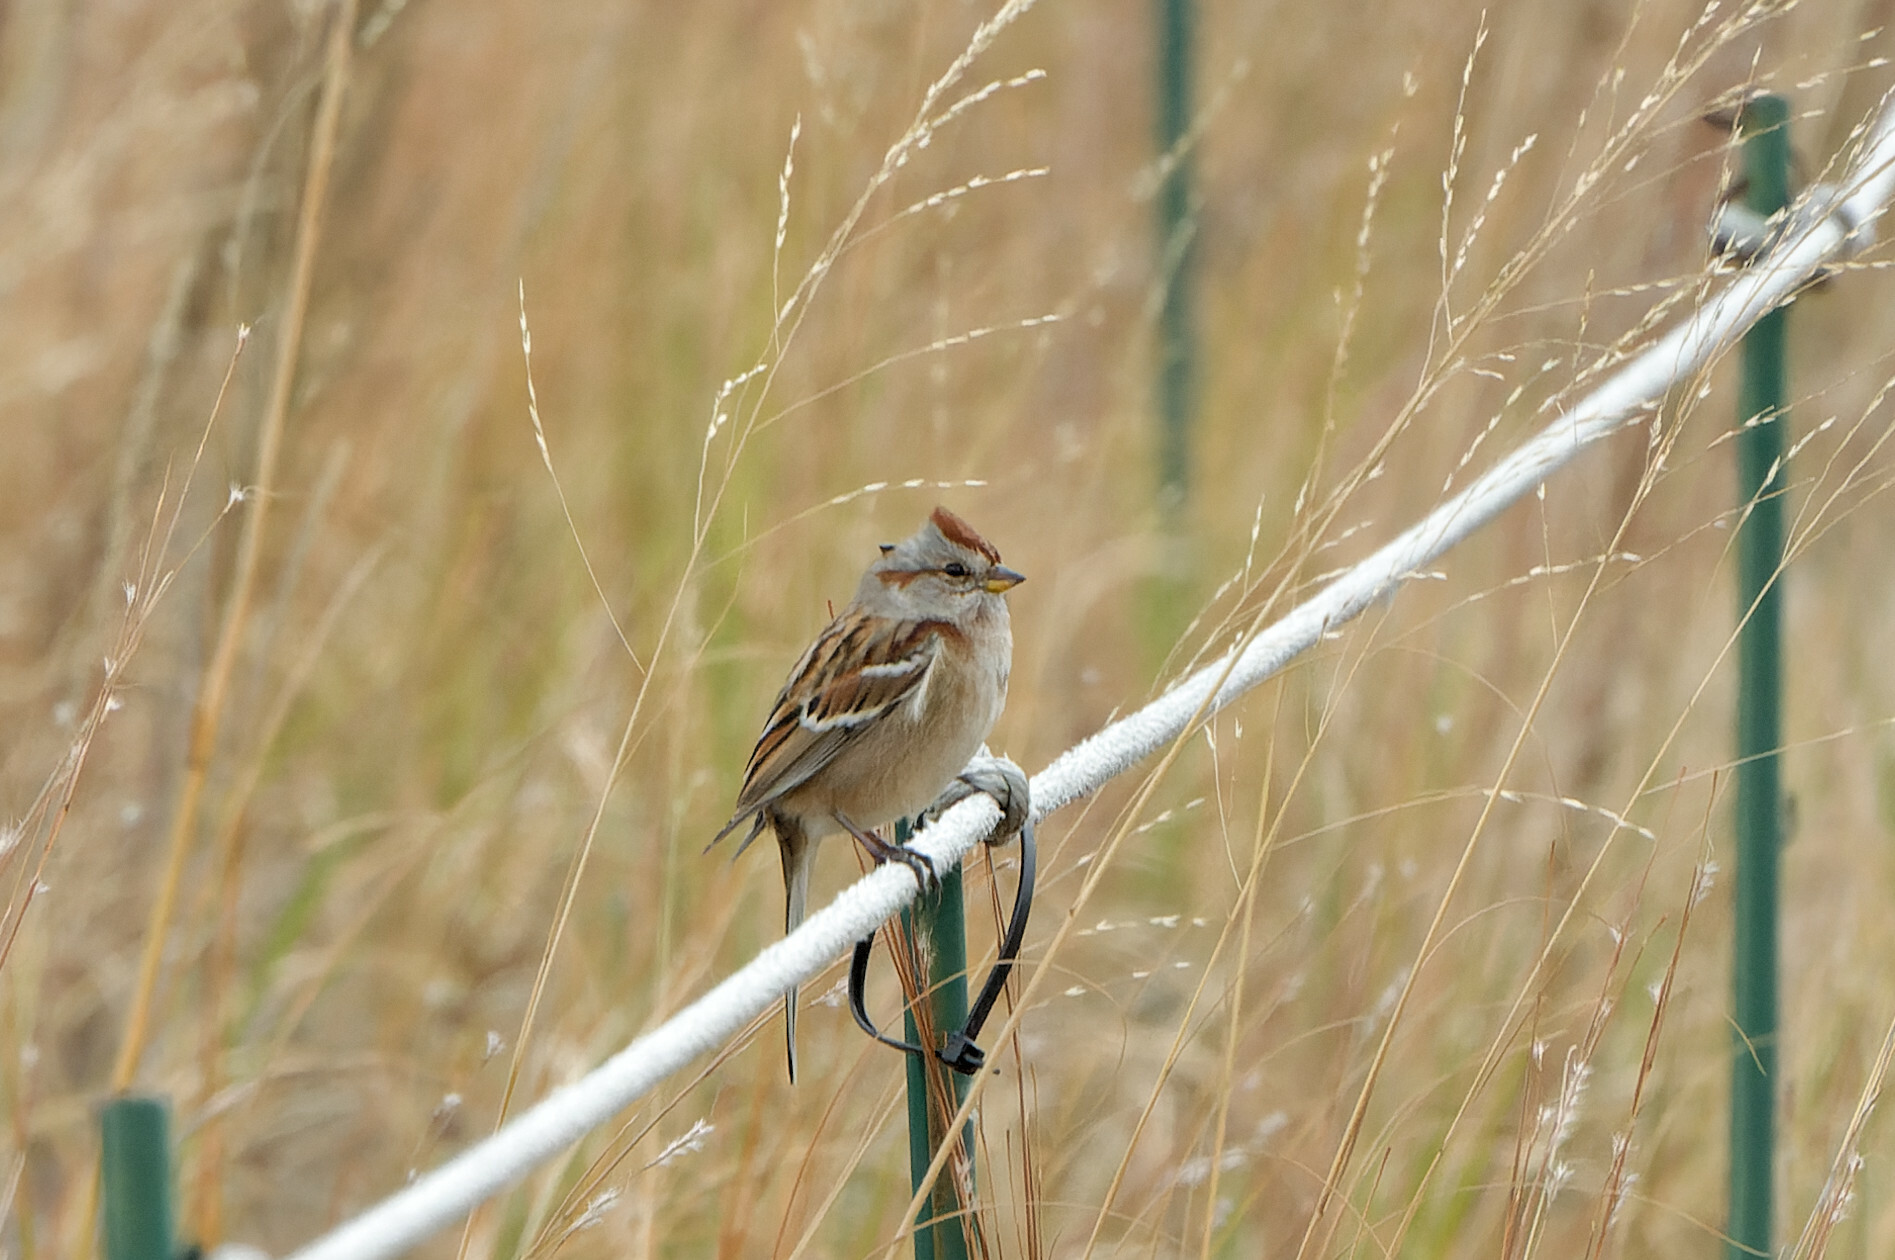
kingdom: Animalia
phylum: Chordata
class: Aves
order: Passeriformes
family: Passerellidae
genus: Spizelloides
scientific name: Spizelloides arborea
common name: American tree sparrow
